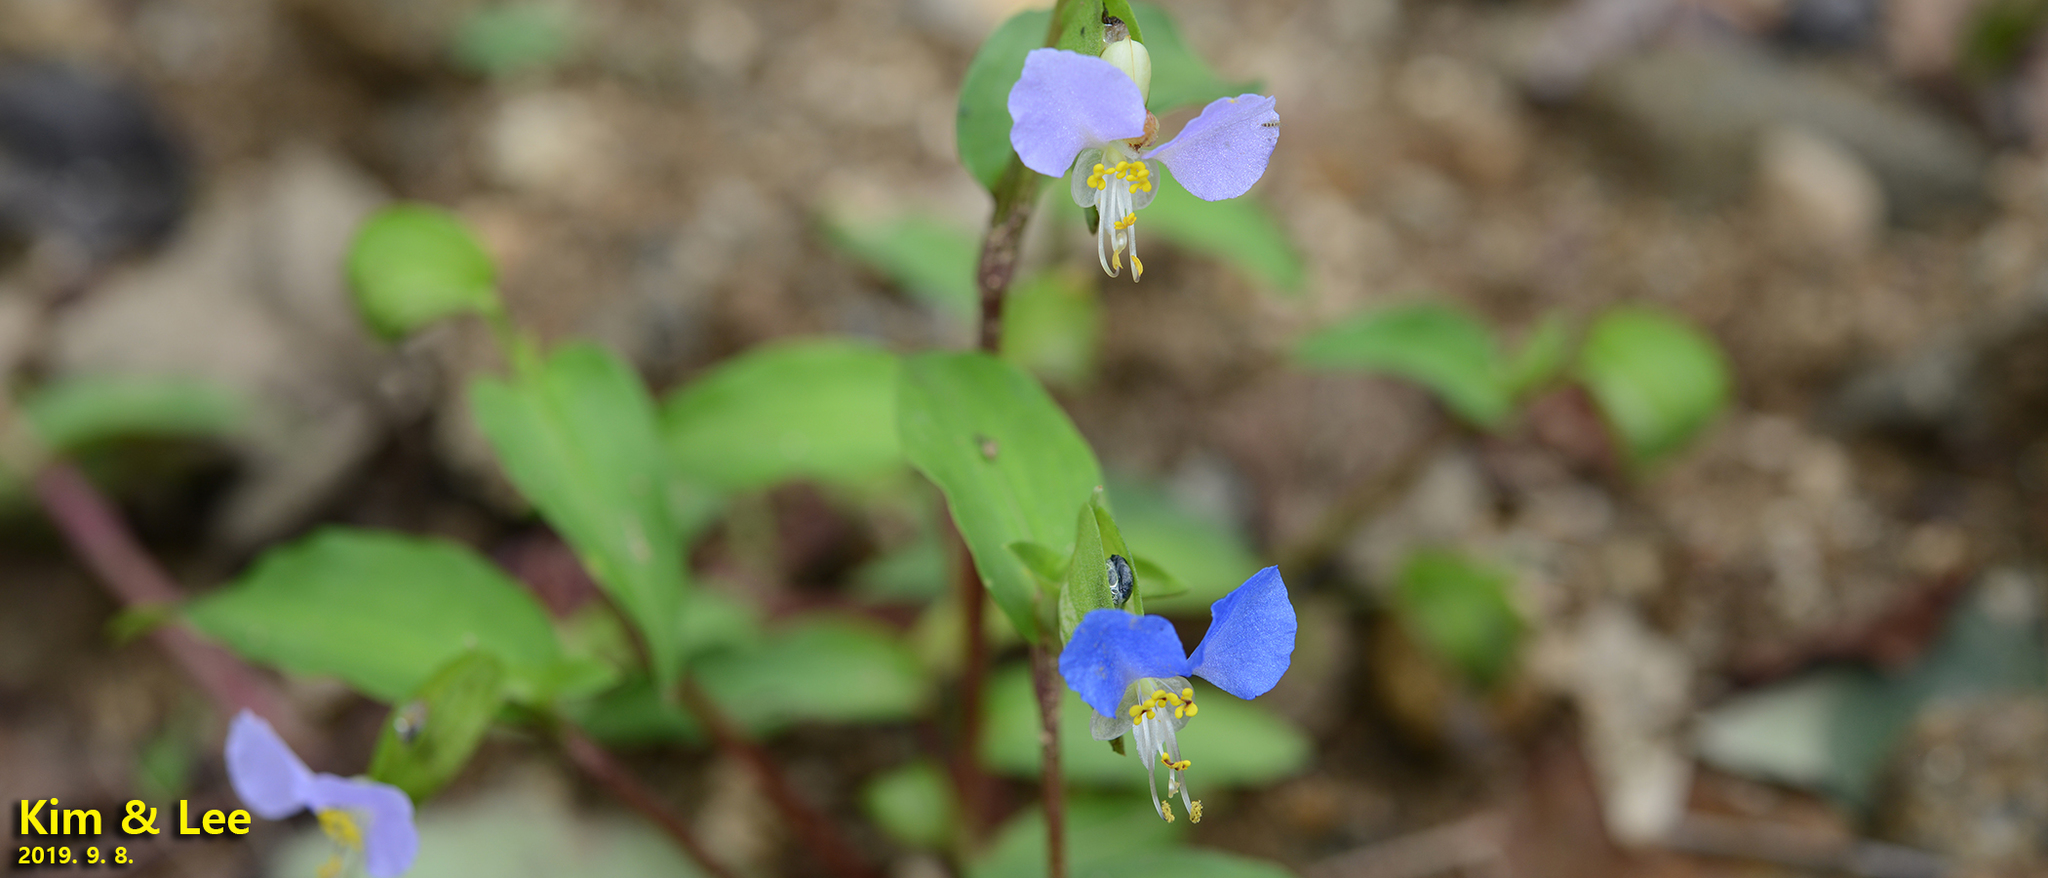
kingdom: Plantae
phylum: Tracheophyta
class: Liliopsida
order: Commelinales
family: Commelinaceae
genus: Commelina
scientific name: Commelina communis
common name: Asiatic dayflower
